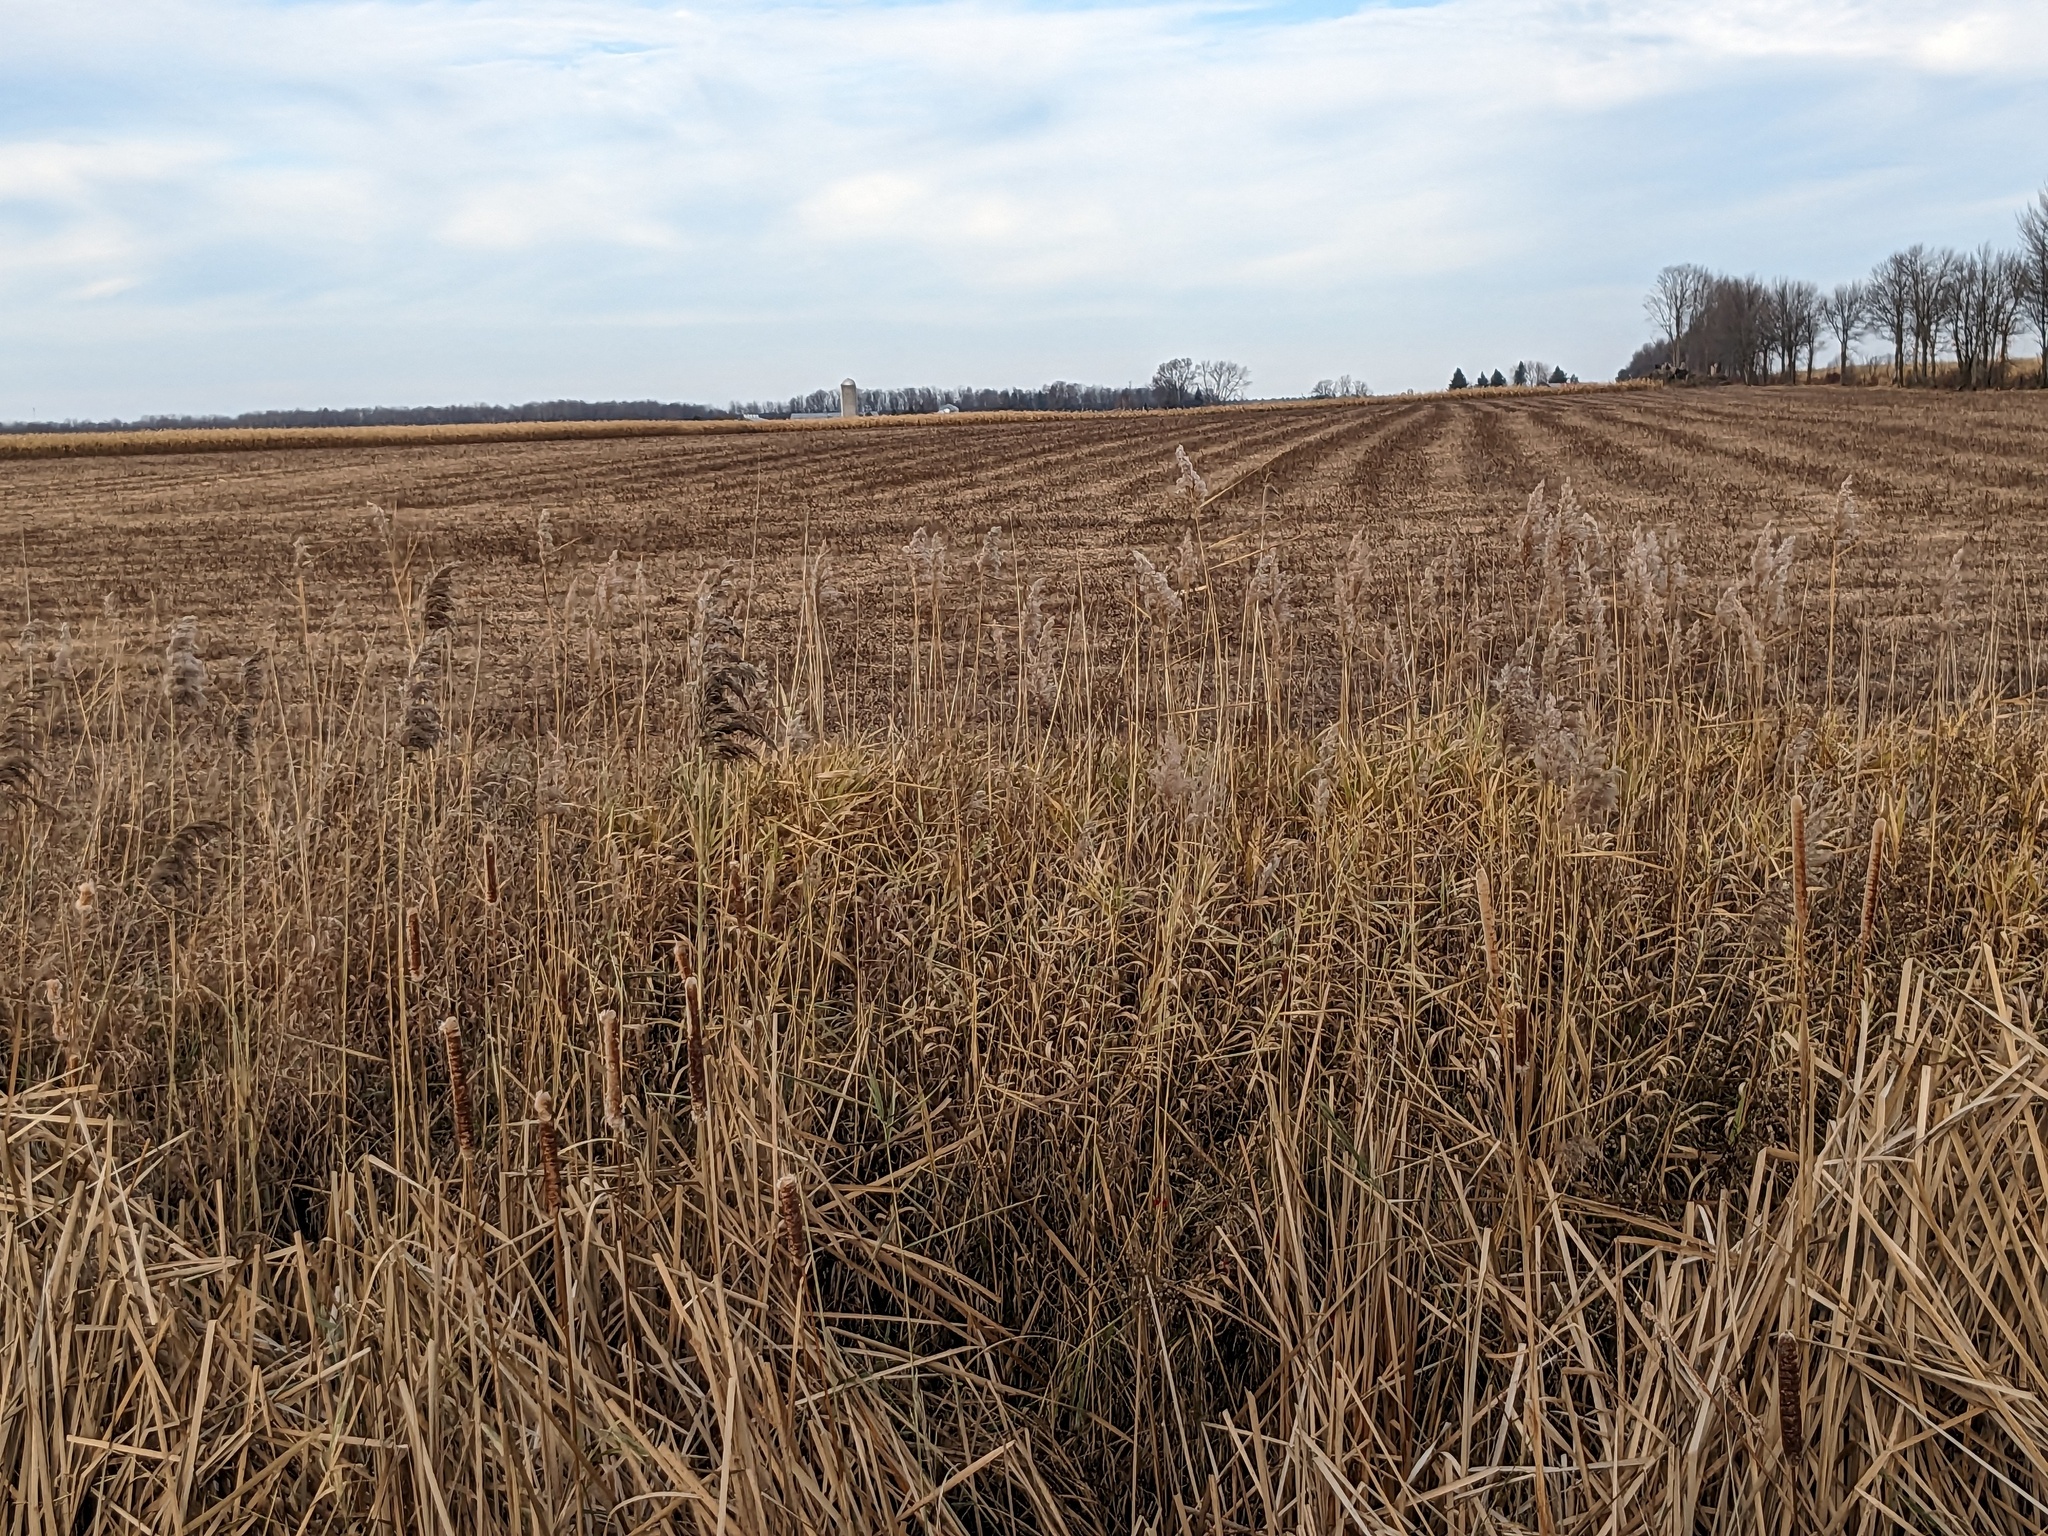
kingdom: Plantae
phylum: Tracheophyta
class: Liliopsida
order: Poales
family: Poaceae
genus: Phragmites
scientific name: Phragmites australis
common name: Common reed
